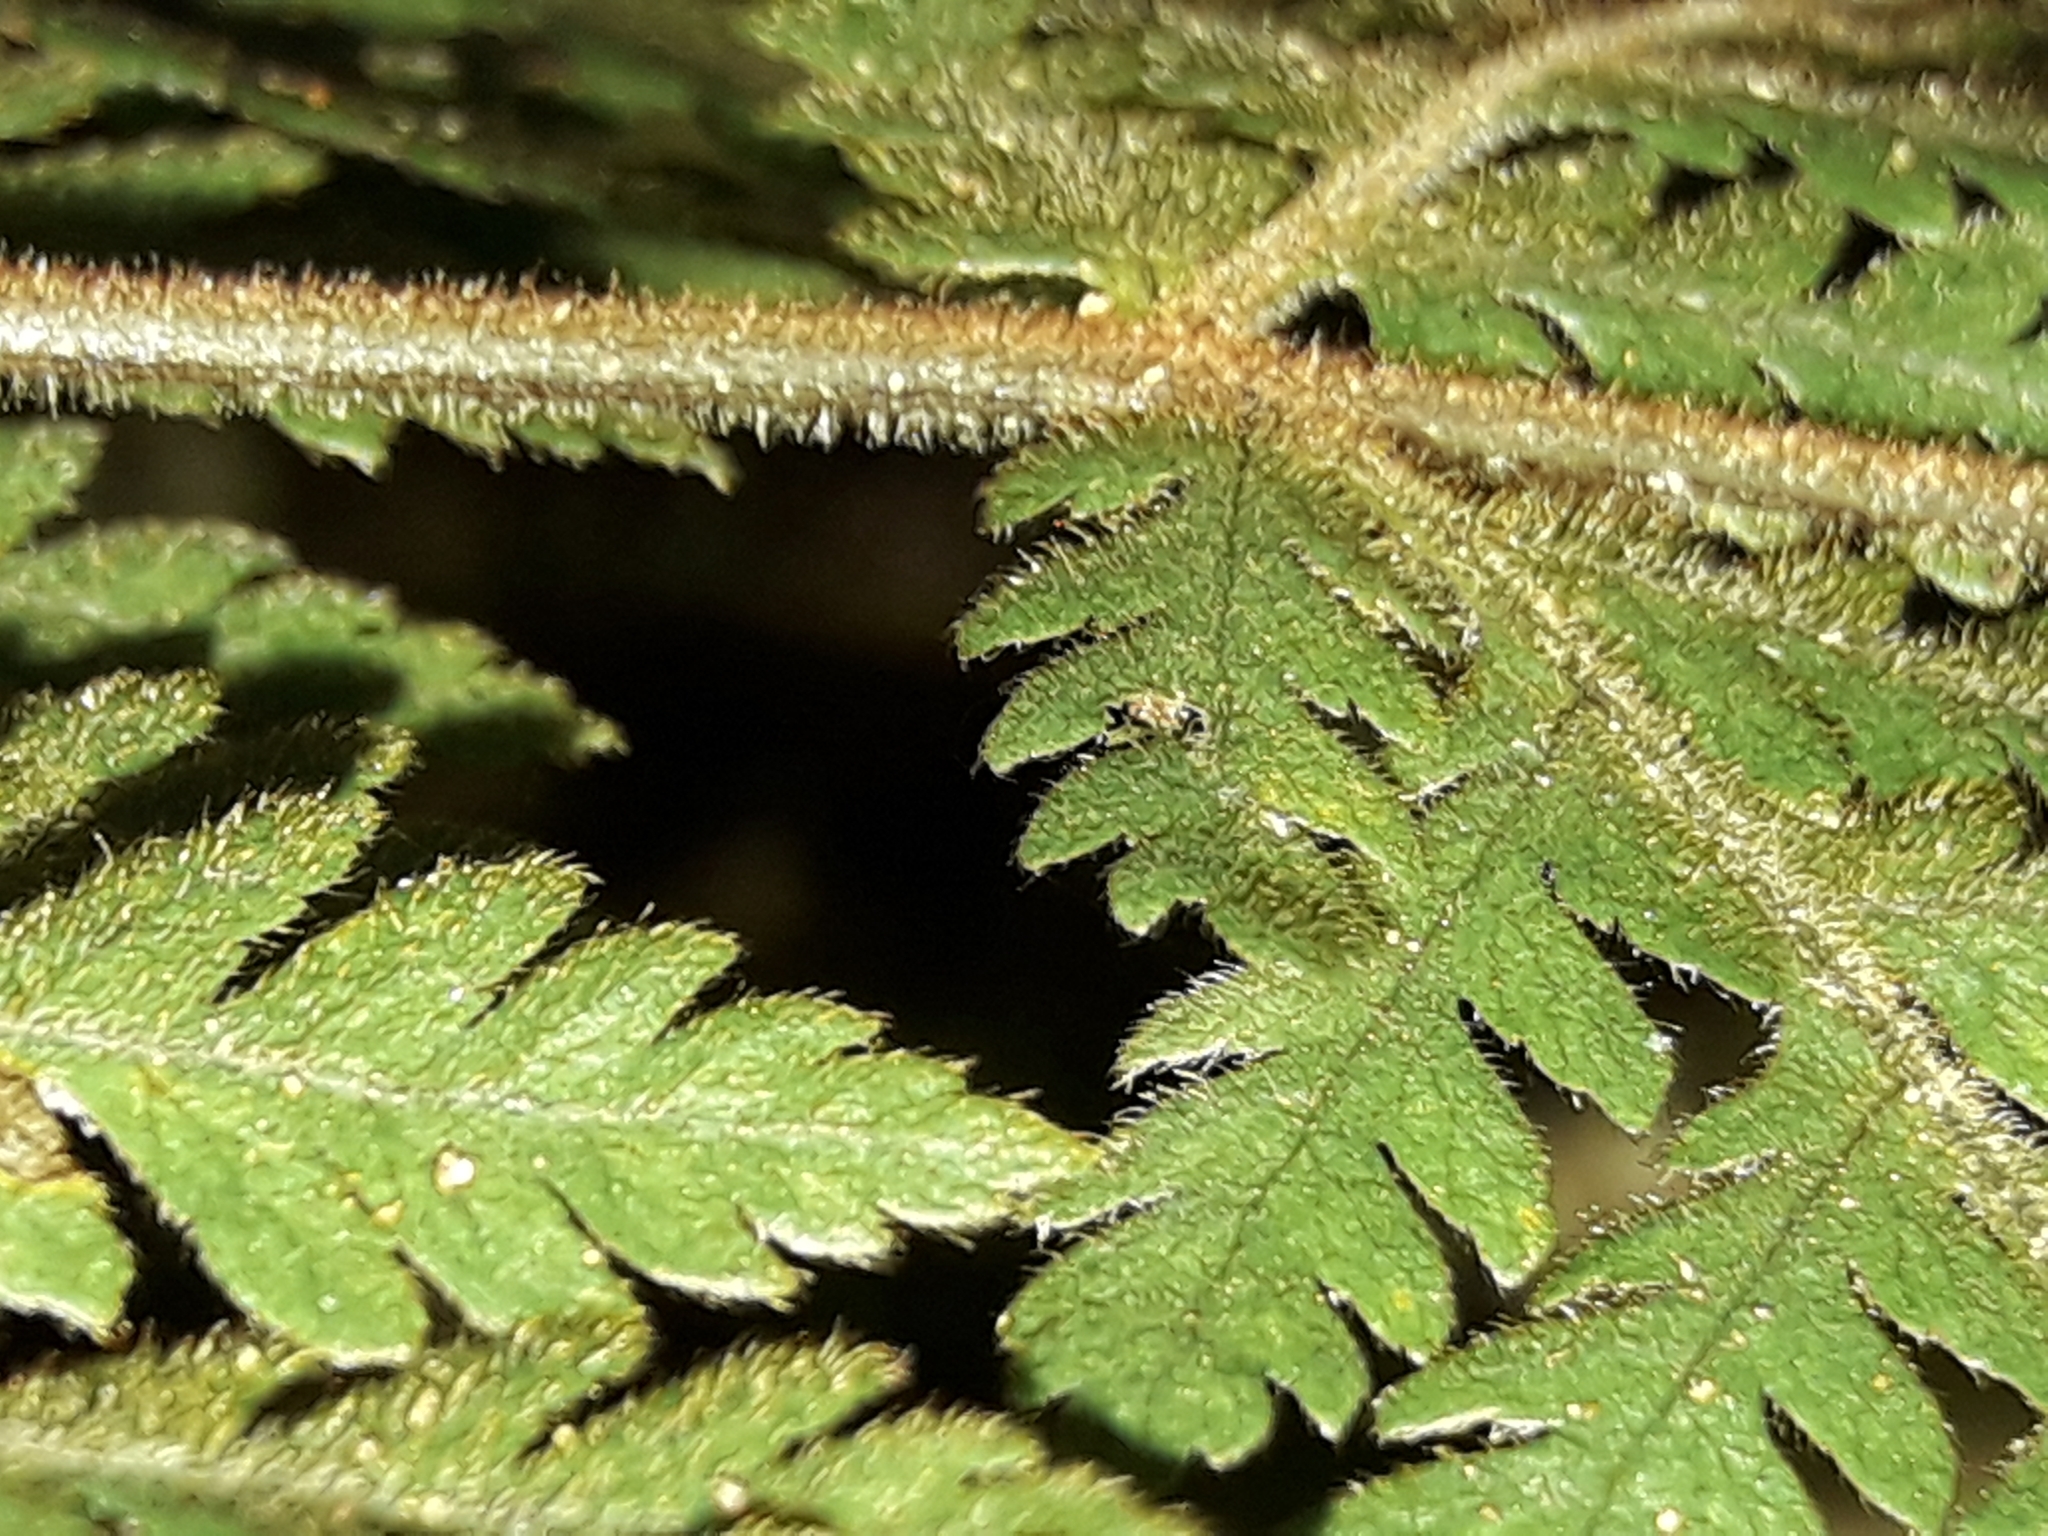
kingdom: Plantae
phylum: Tracheophyta
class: Polypodiopsida
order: Polypodiales
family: Dryopteridaceae
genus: Lastreopsis
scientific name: Lastreopsis velutina
